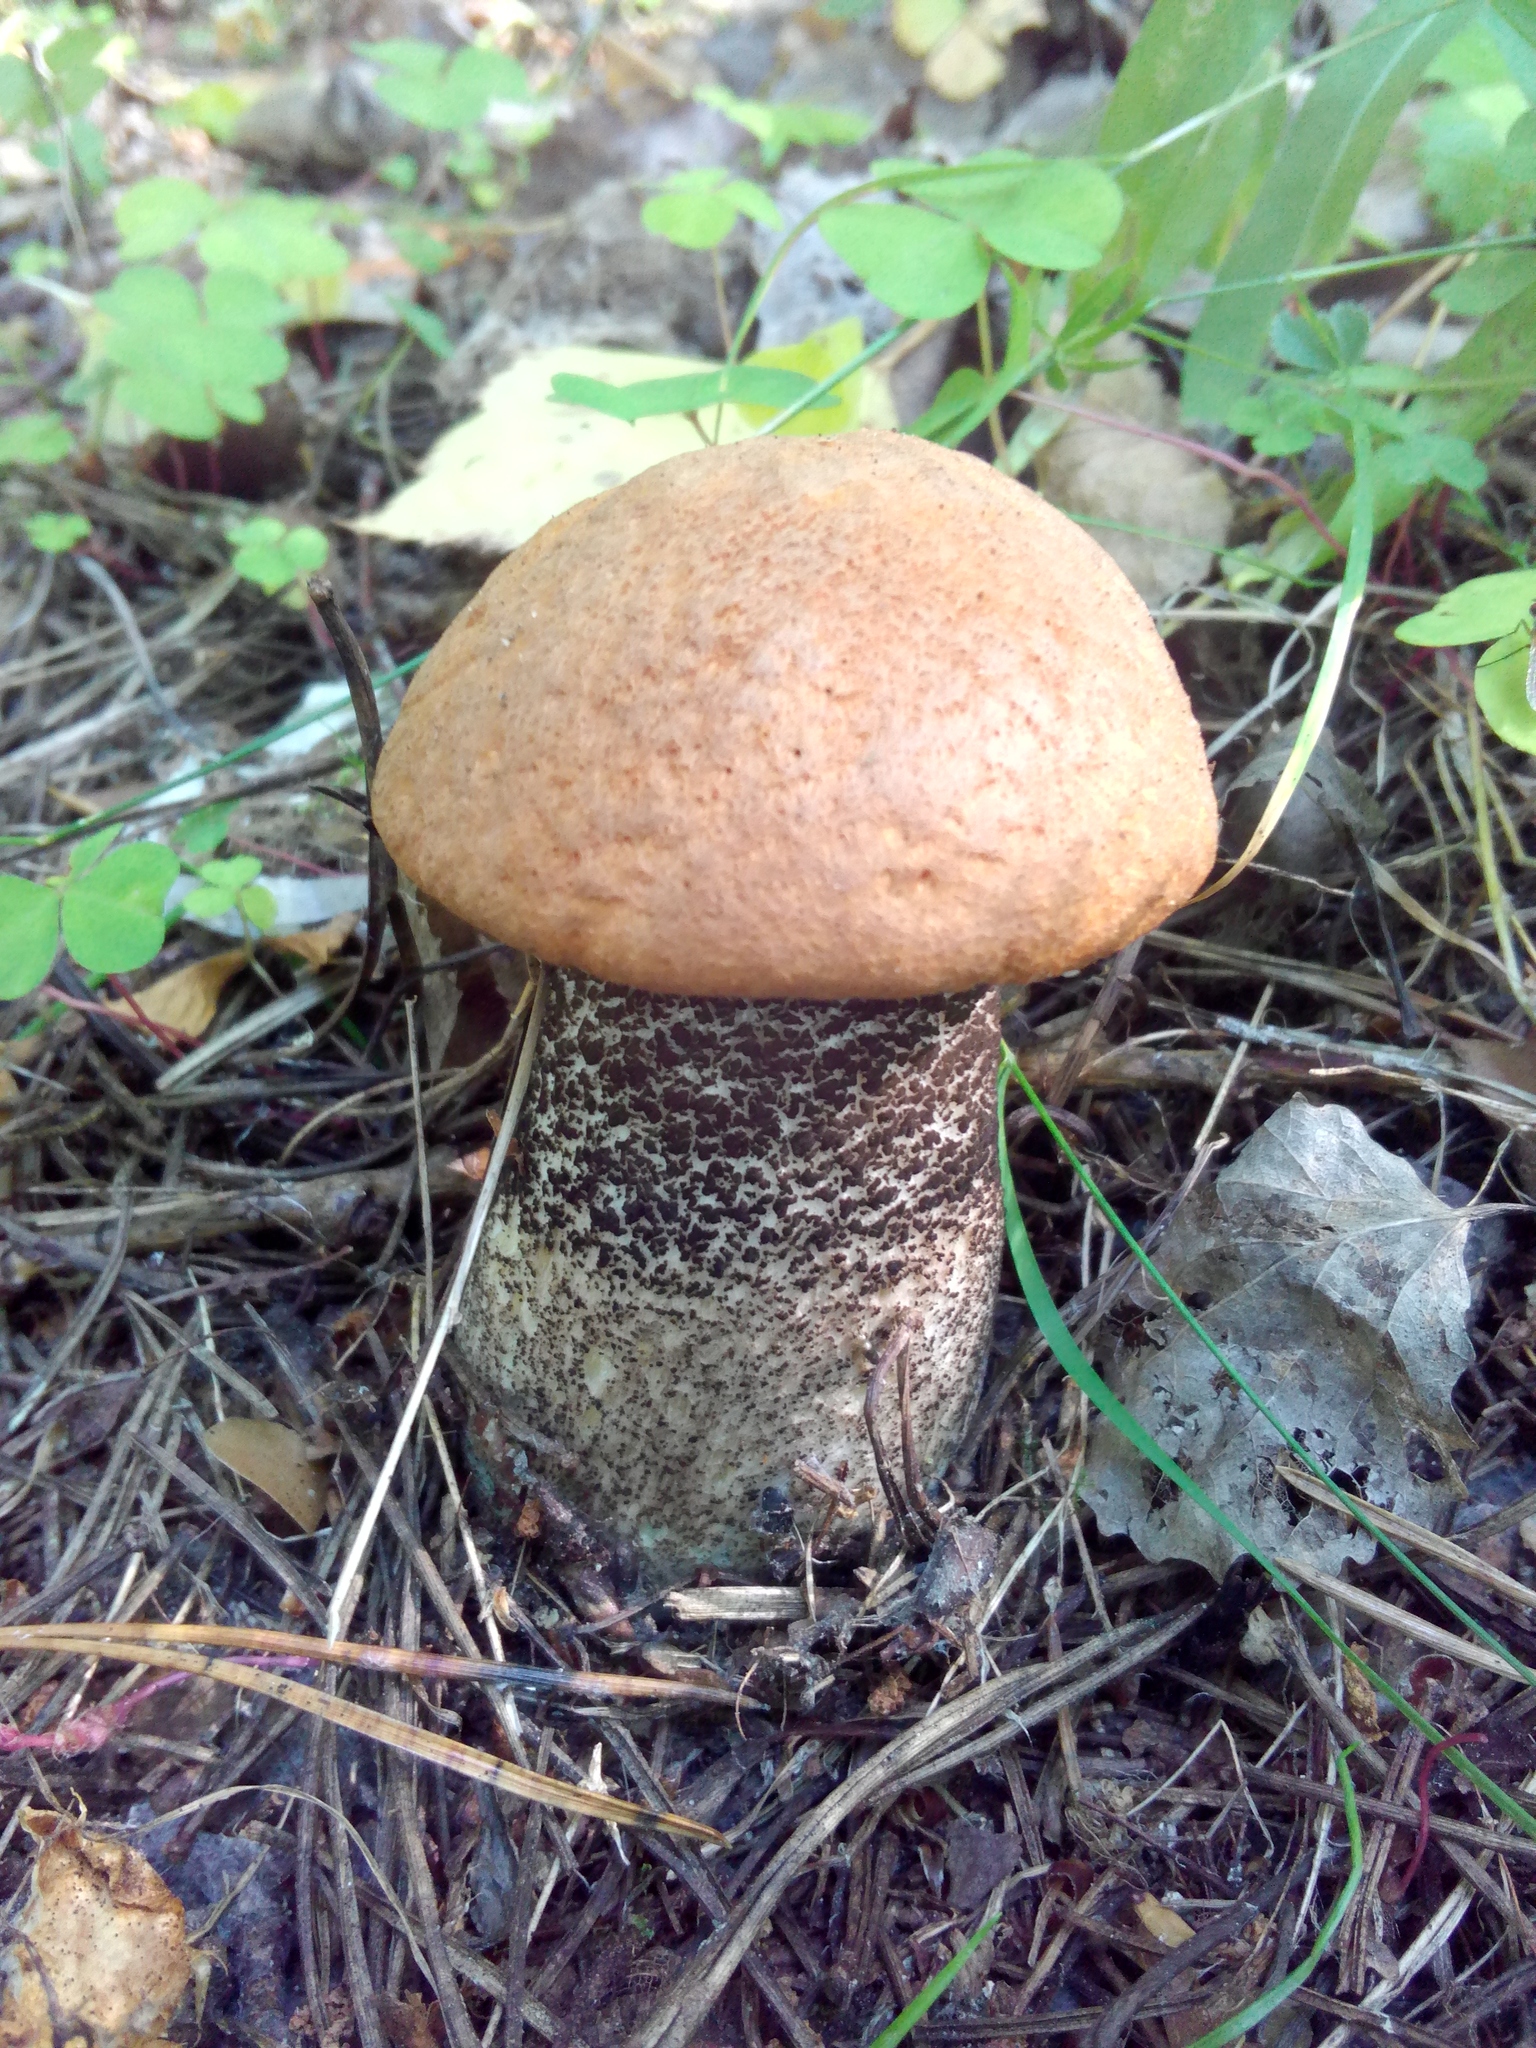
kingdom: Fungi
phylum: Basidiomycota
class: Agaricomycetes
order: Boletales
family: Boletaceae
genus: Leccinum
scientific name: Leccinum versipelle
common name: Orange birch bolete
